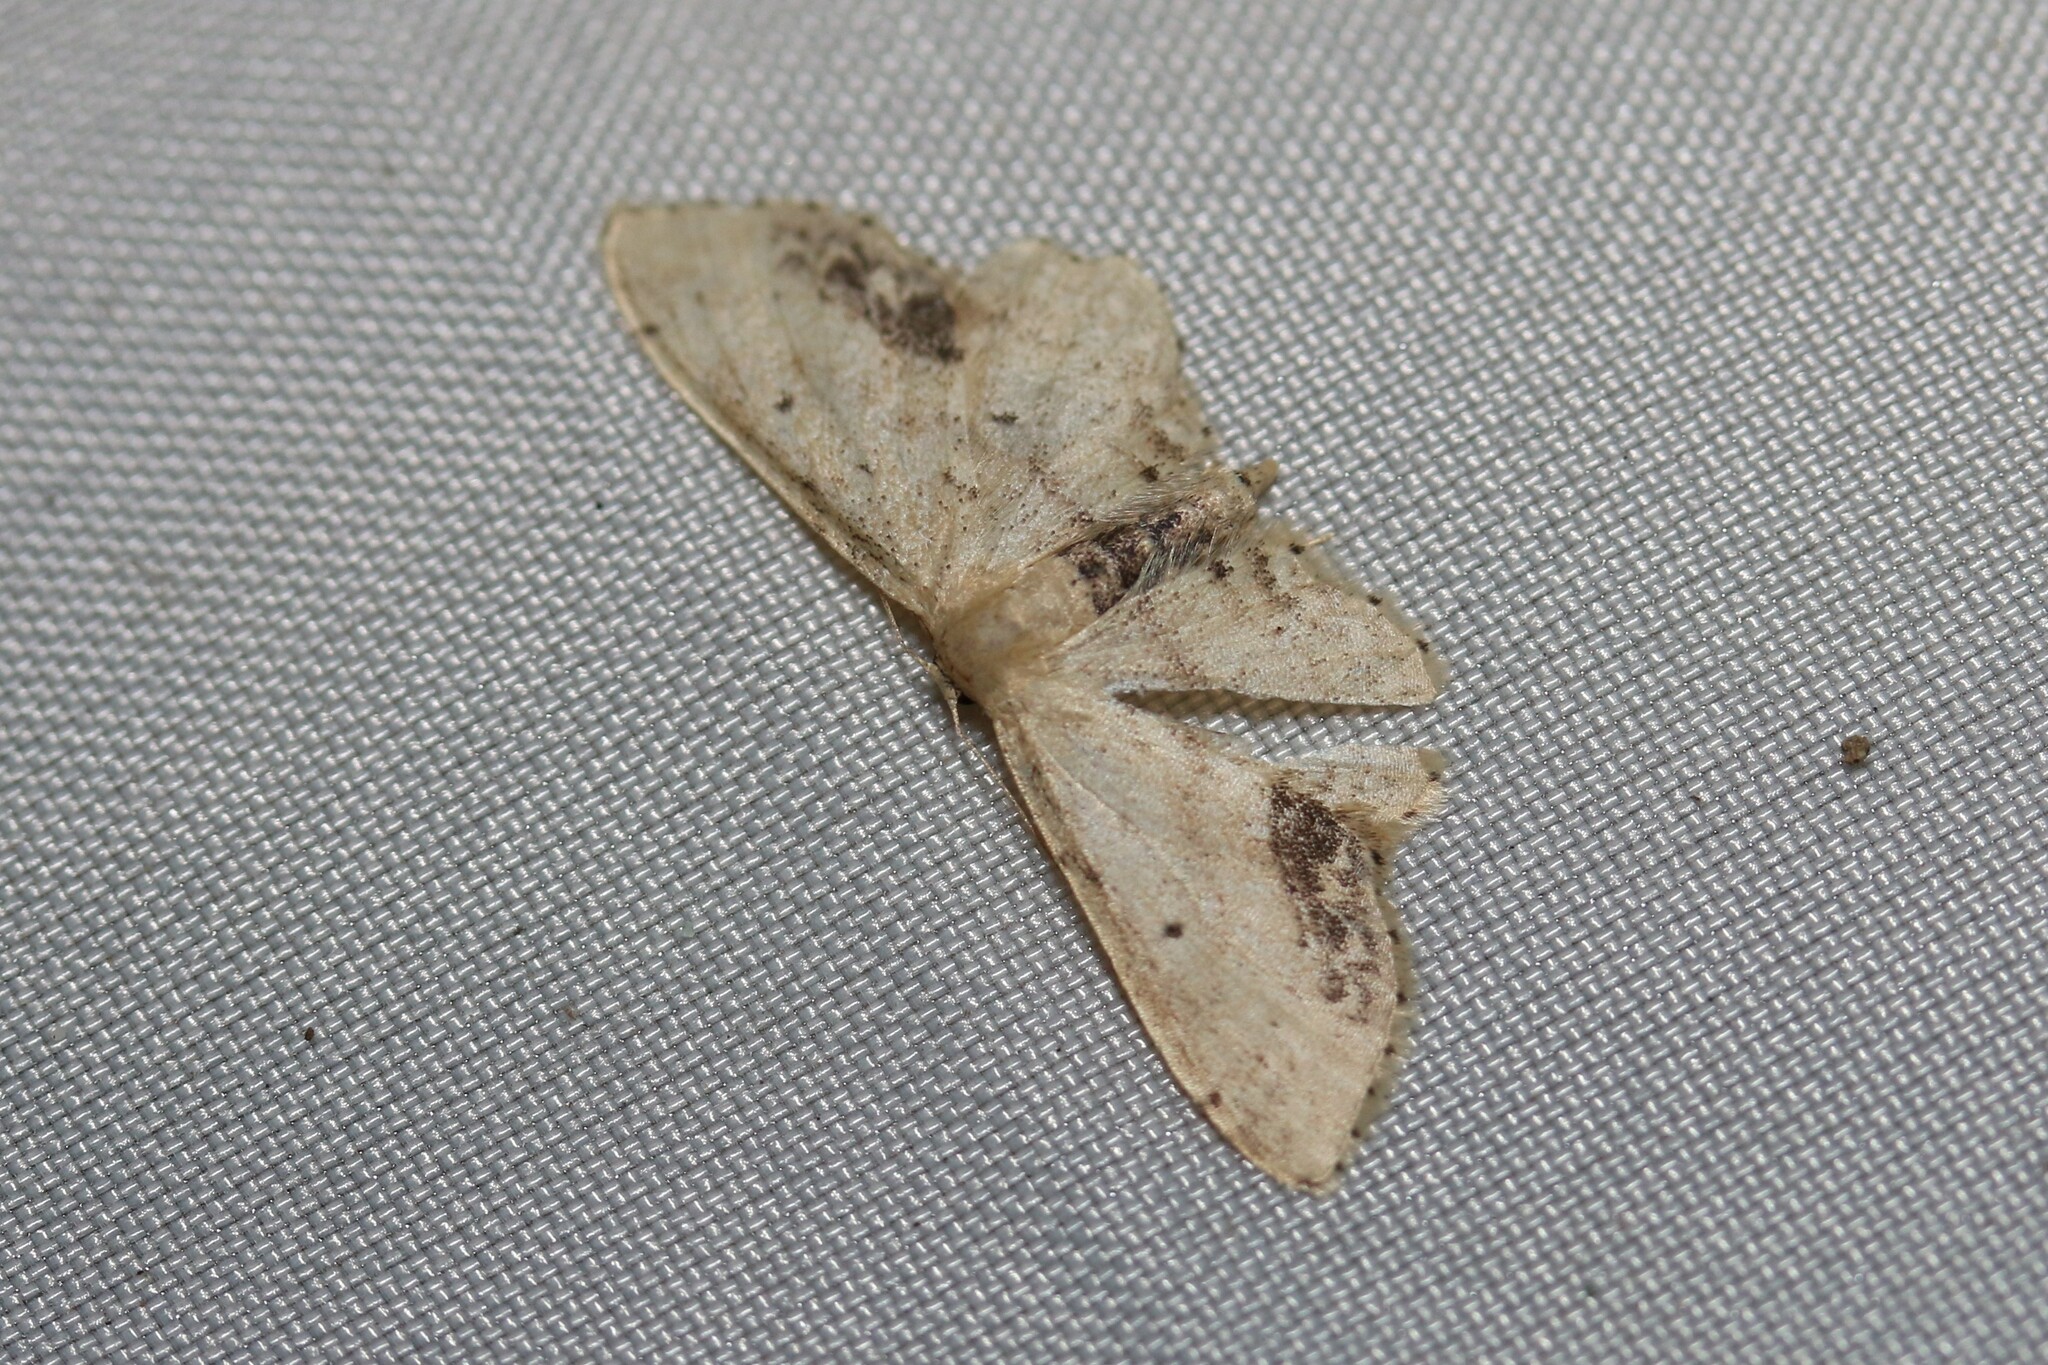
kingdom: Animalia
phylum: Arthropoda
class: Insecta
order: Lepidoptera
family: Geometridae
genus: Idaea
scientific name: Idaea dimidiata
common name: Single-dotted wave
